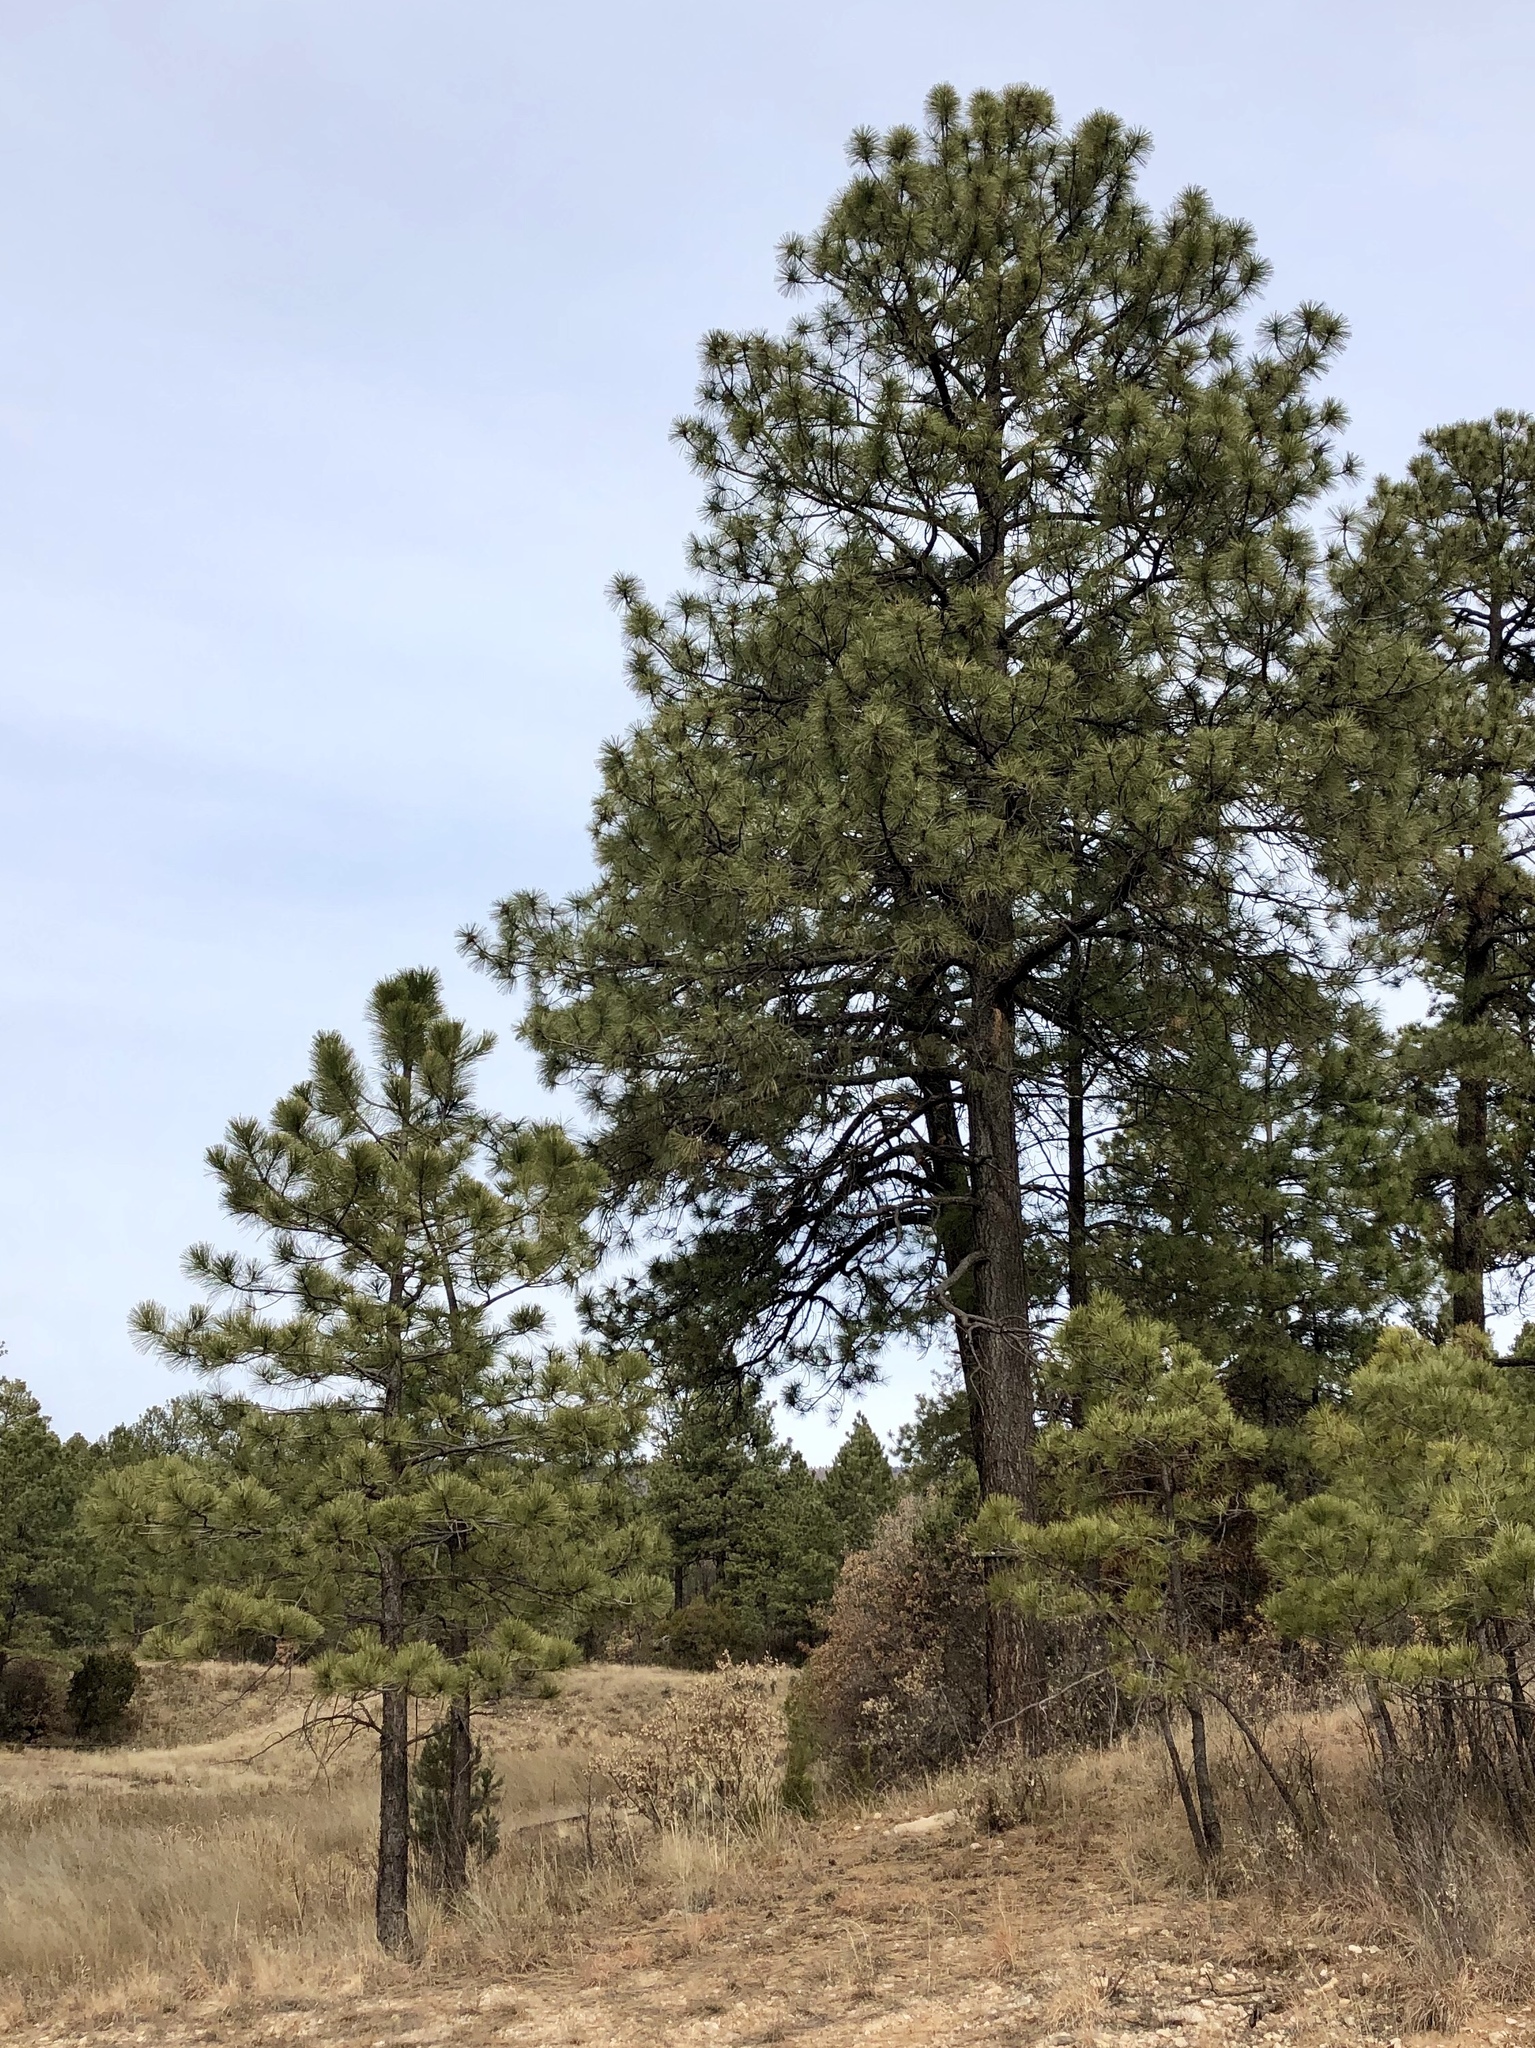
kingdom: Plantae
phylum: Tracheophyta
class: Pinopsida
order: Pinales
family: Pinaceae
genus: Pinus
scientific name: Pinus ponderosa
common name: Western yellow-pine
